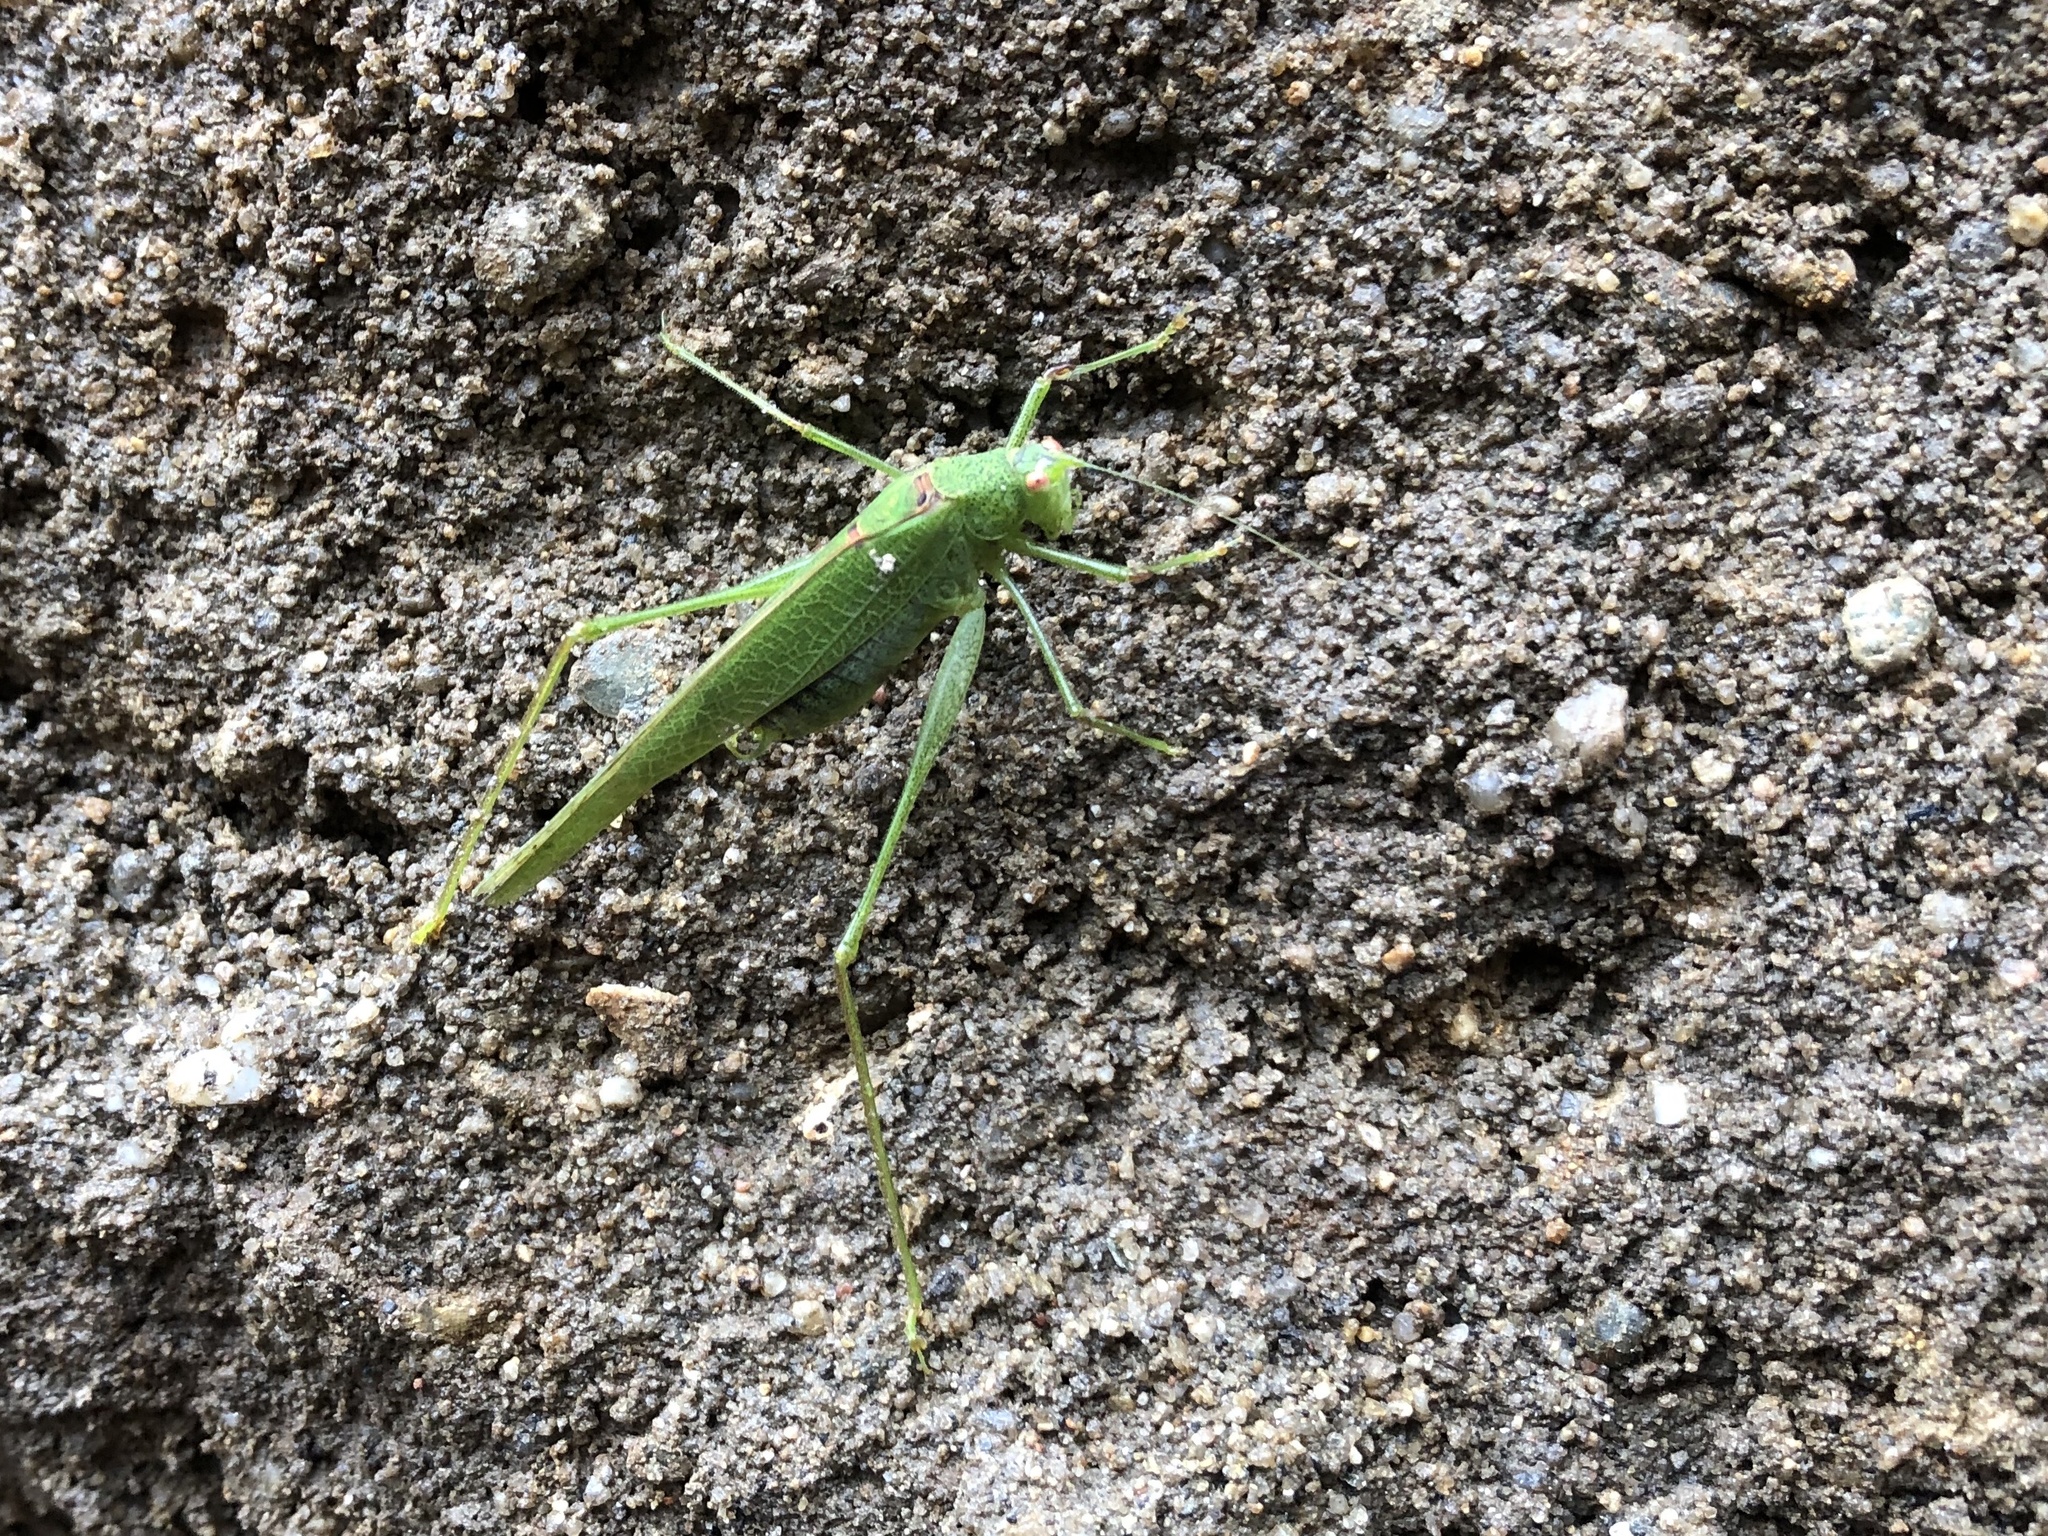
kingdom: Animalia
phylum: Arthropoda
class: Insecta
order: Orthoptera
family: Tettigoniidae
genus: Phaneroptera
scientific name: Phaneroptera nana
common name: Southern sickle bush-cricket
